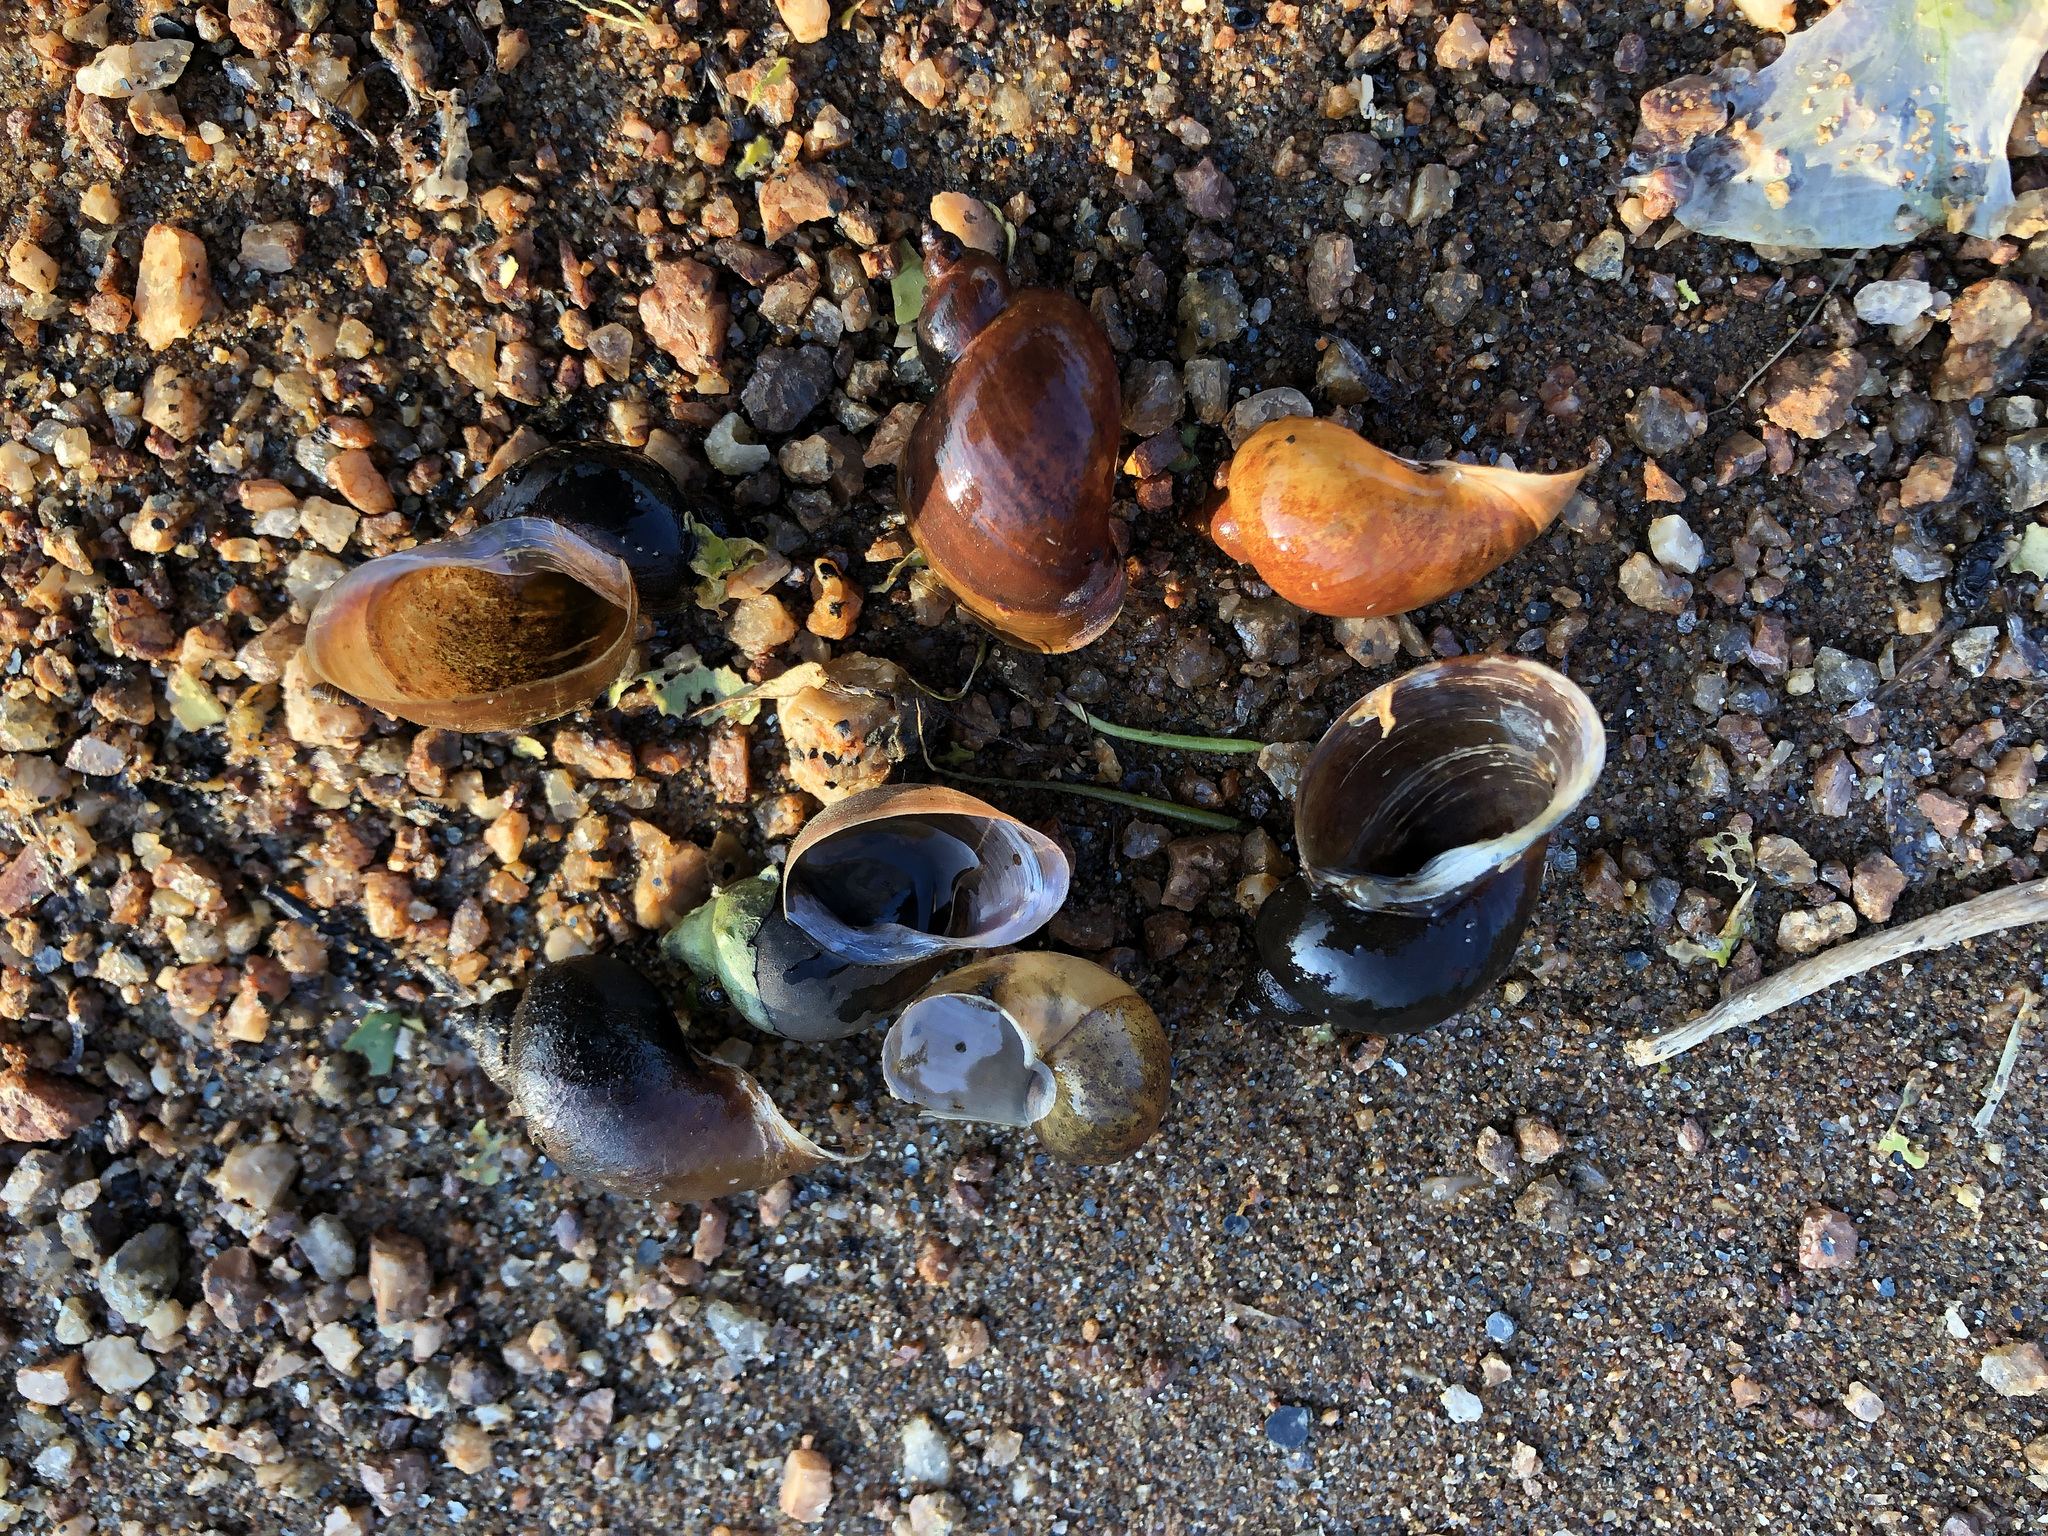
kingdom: Animalia
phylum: Mollusca
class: Gastropoda
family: Lymnaeidae
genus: Polyrhytis
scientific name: Polyrhytis
